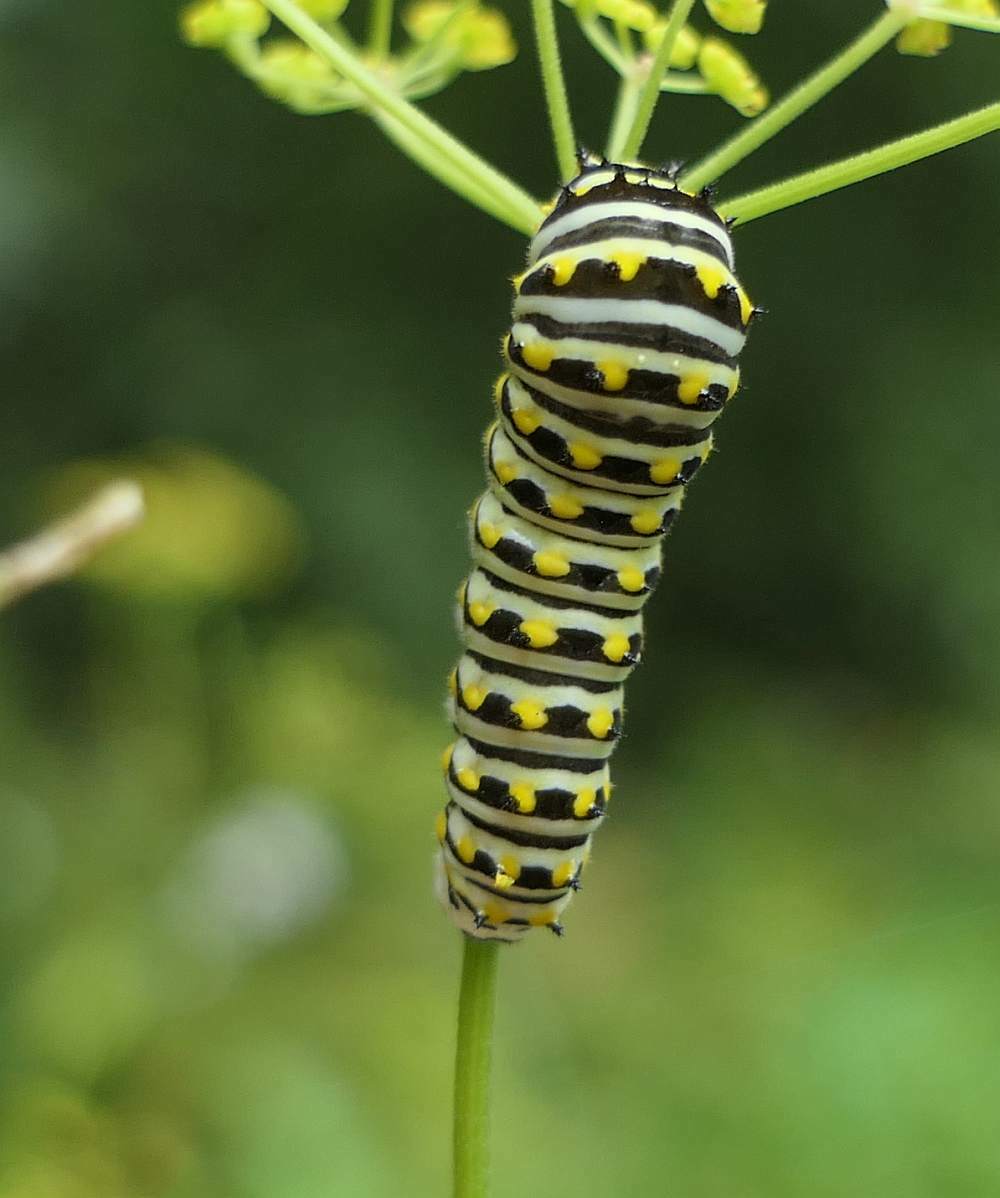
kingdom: Animalia
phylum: Arthropoda
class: Insecta
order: Lepidoptera
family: Papilionidae
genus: Papilio
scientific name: Papilio polyxenes
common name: Black swallowtail
